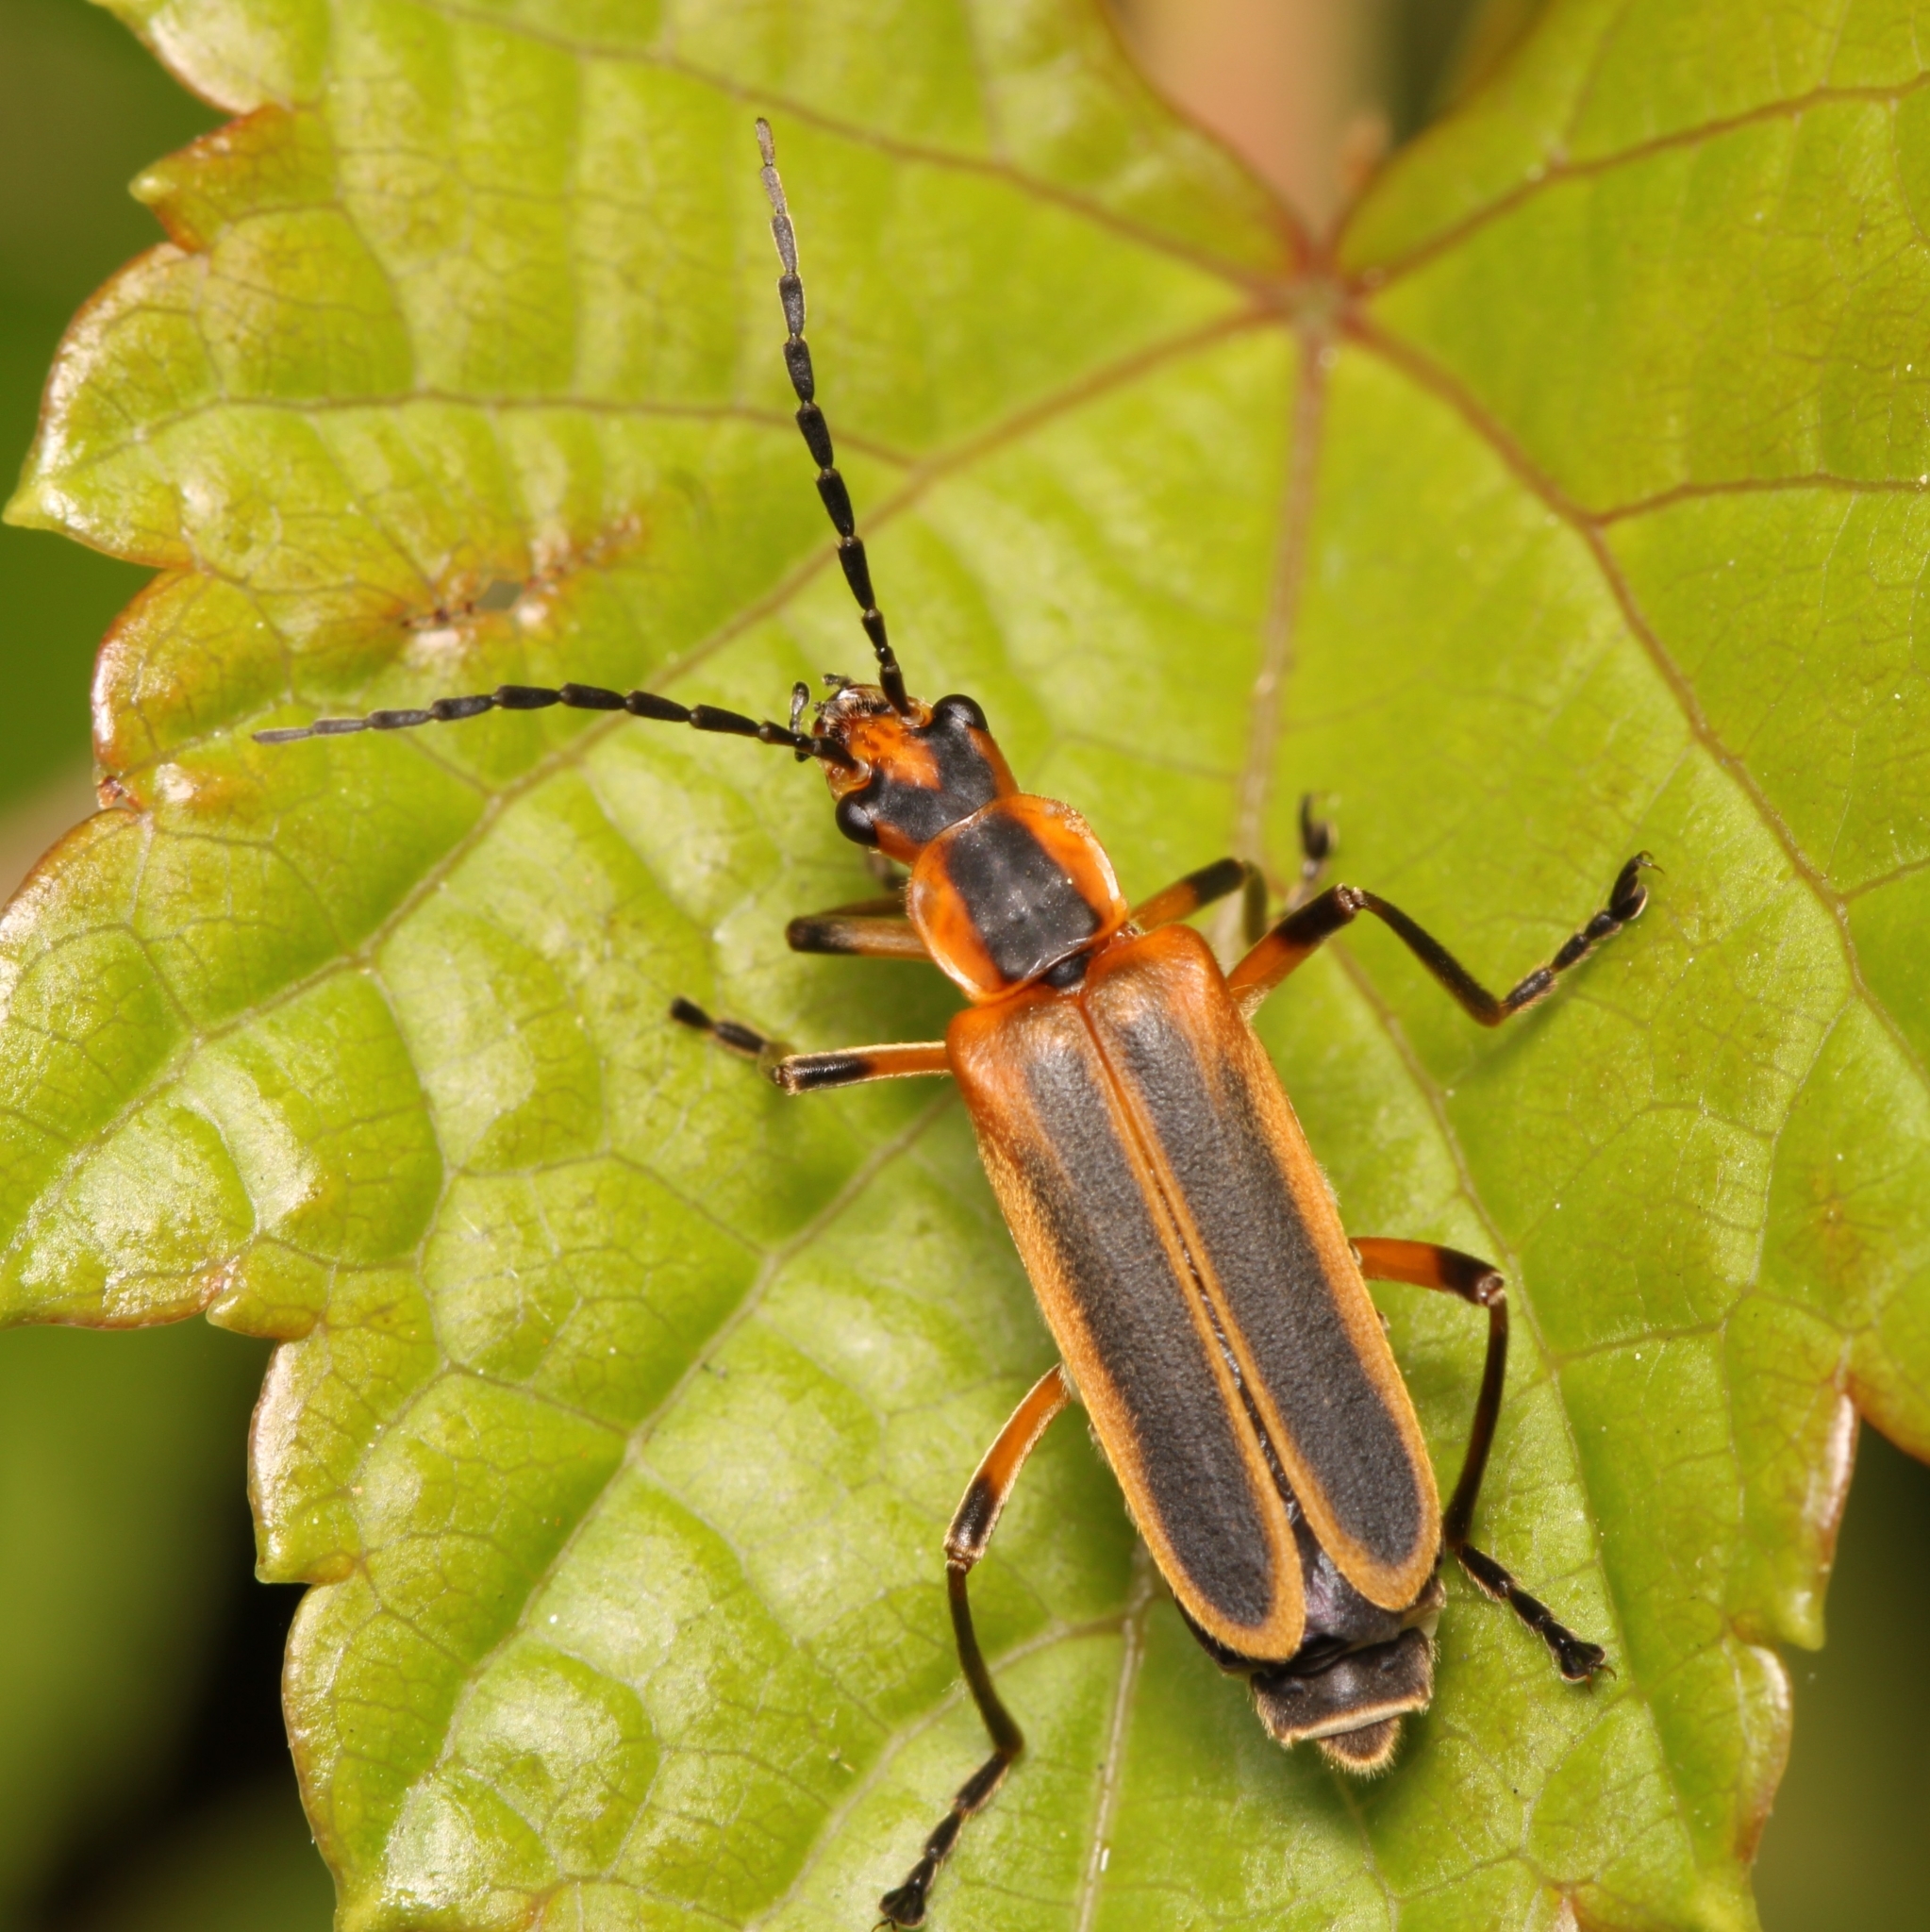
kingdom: Animalia
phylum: Arthropoda
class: Insecta
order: Coleoptera
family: Cantharidae
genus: Chauliognathus
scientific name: Chauliognathus marginatus
